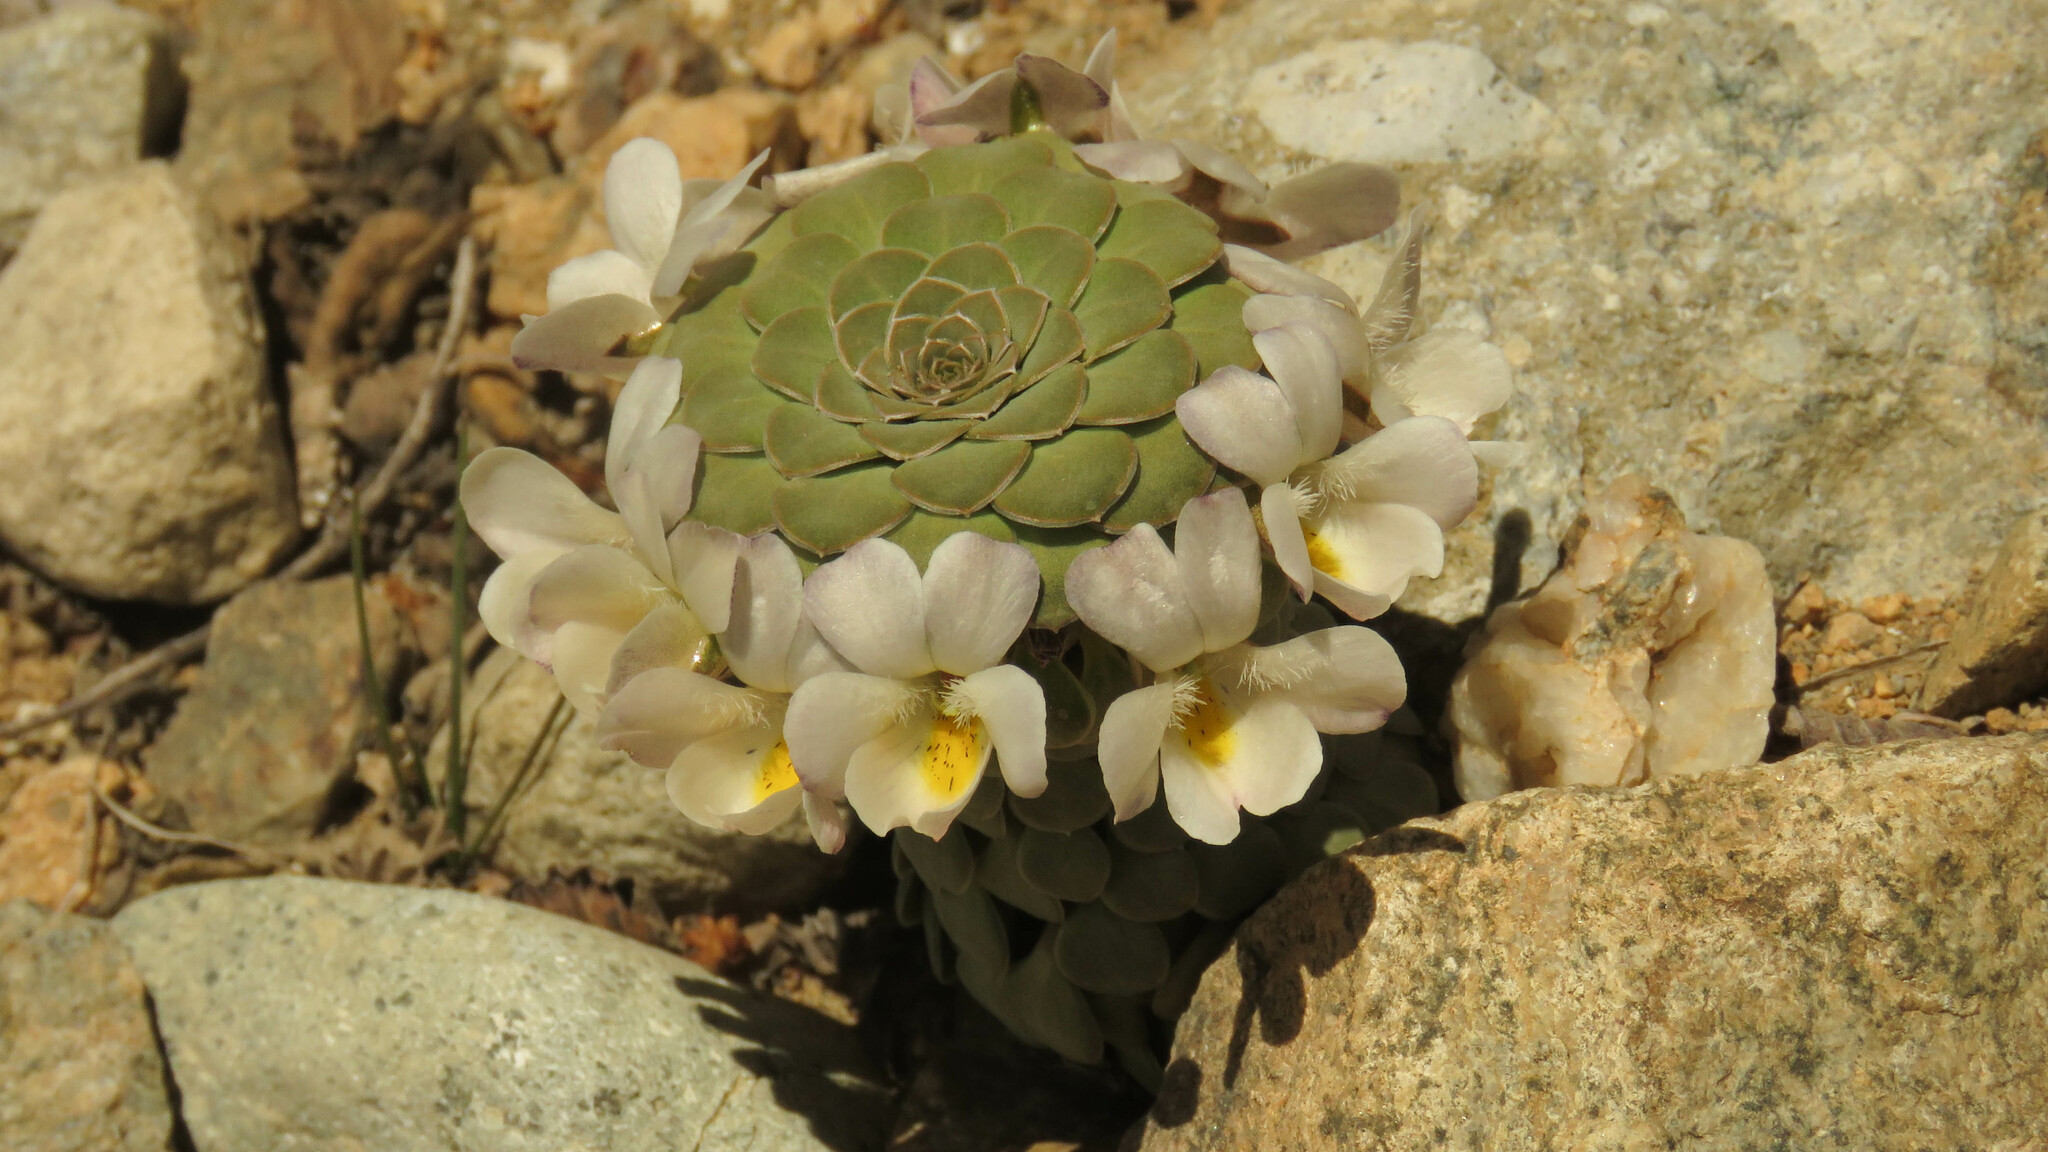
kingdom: Plantae
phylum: Tracheophyta
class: Magnoliopsida
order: Malpighiales
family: Violaceae
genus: Viola
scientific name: Viola petraea
